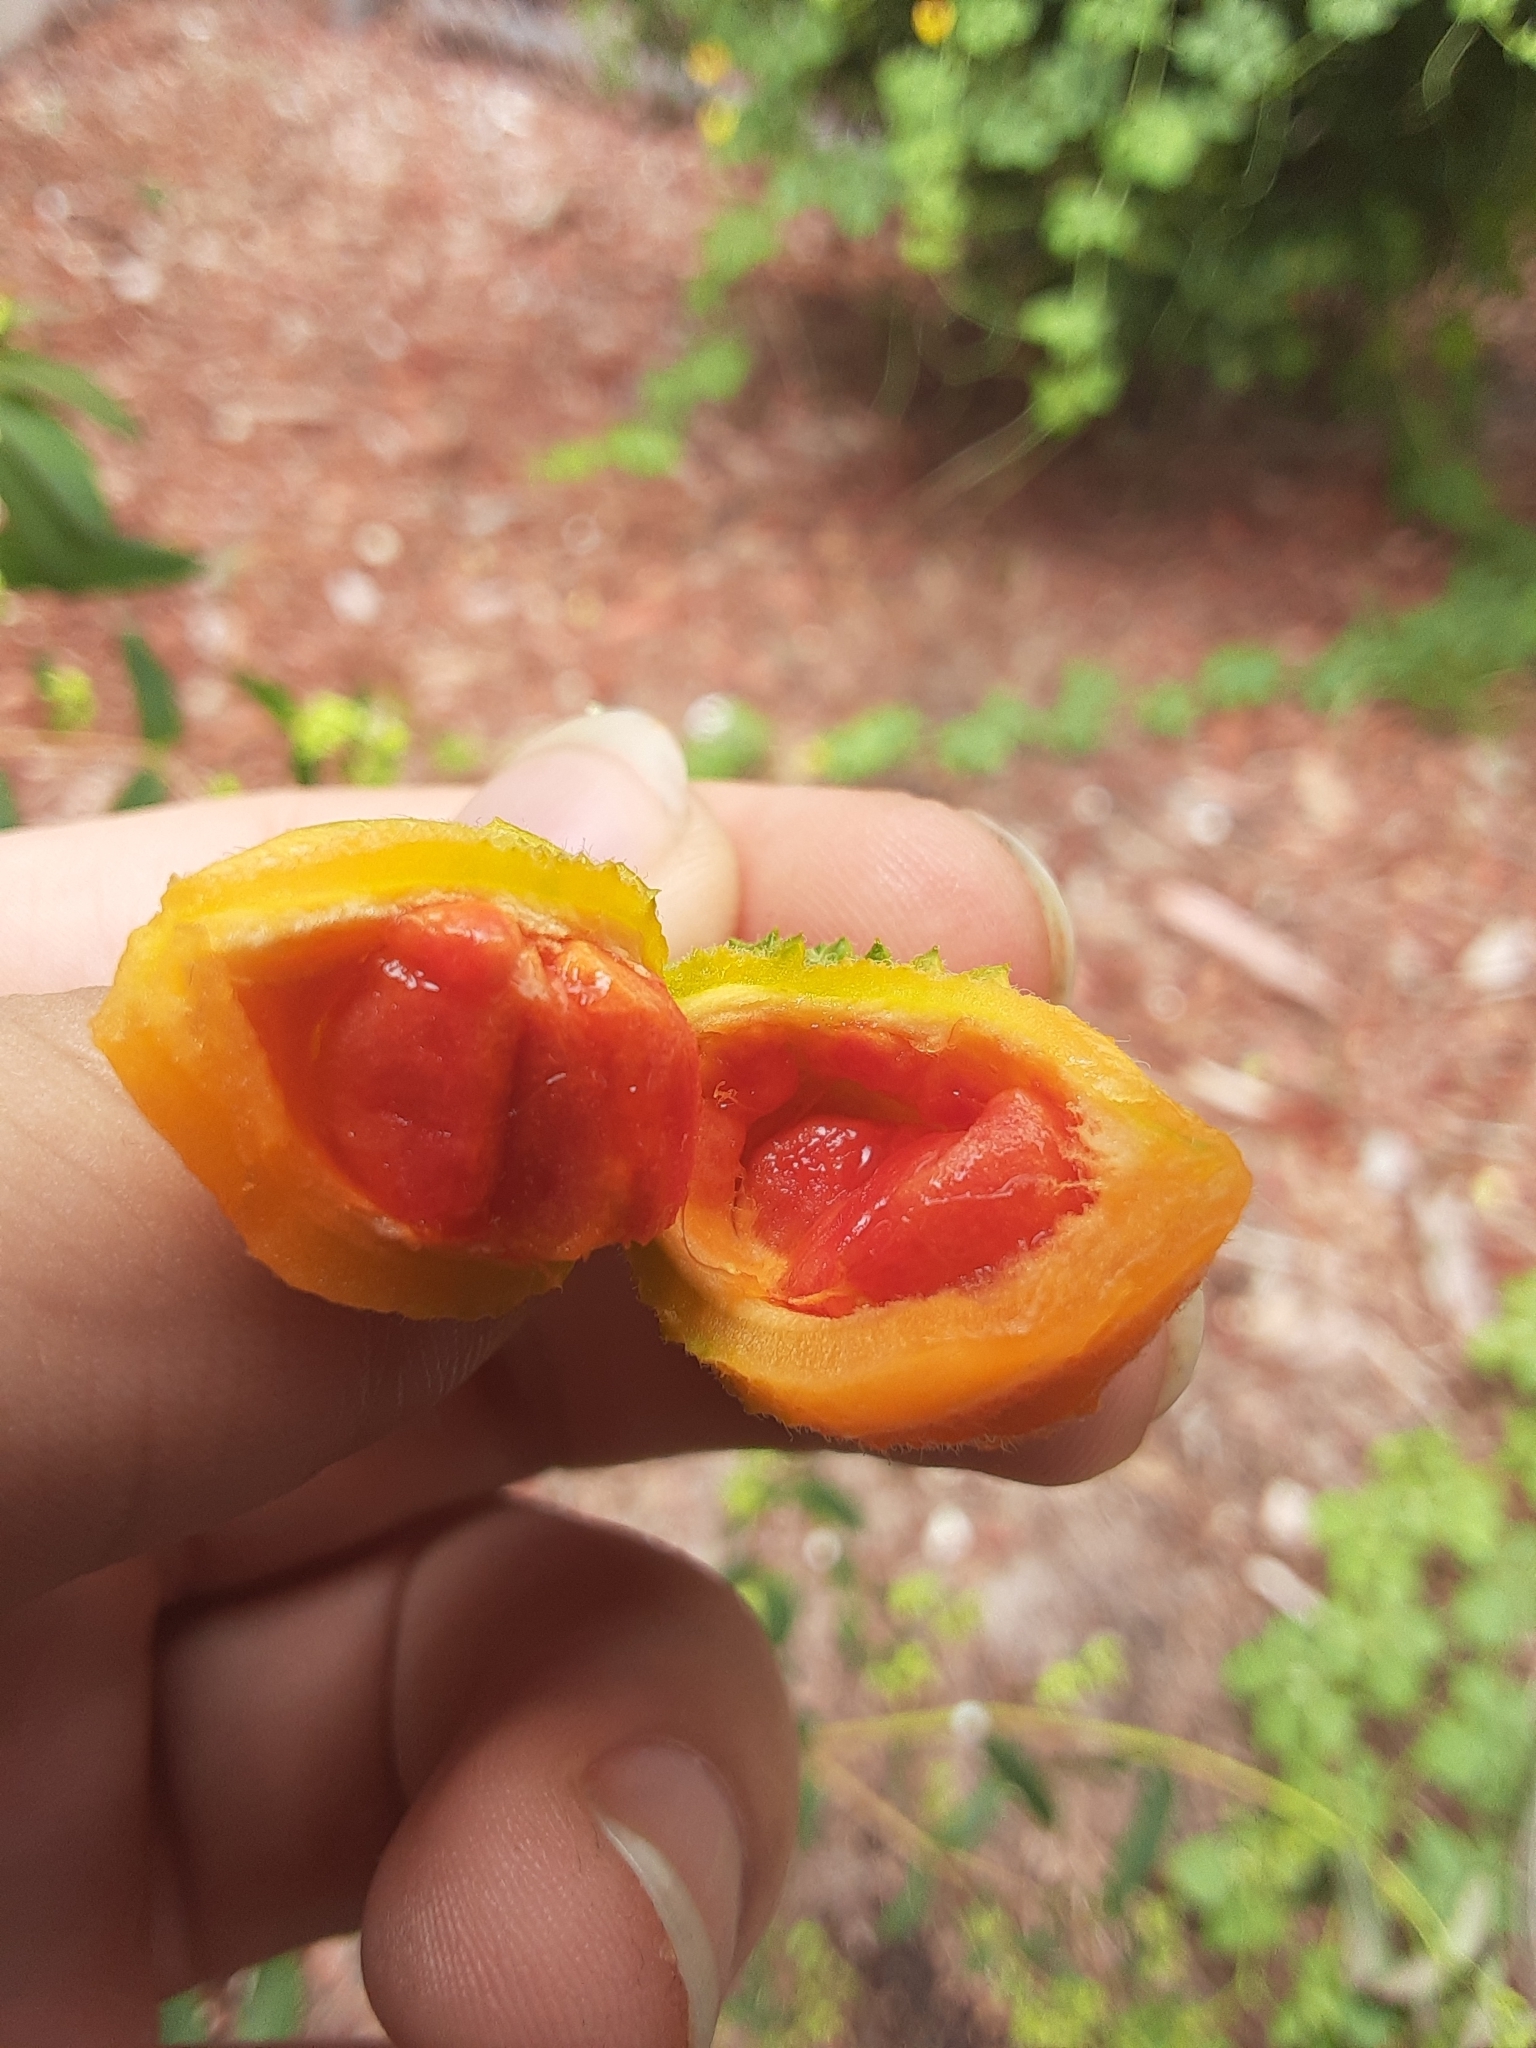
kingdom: Plantae
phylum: Tracheophyta
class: Magnoliopsida
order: Cucurbitales
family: Cucurbitaceae
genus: Momordica
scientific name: Momordica charantia
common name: Balsampear
